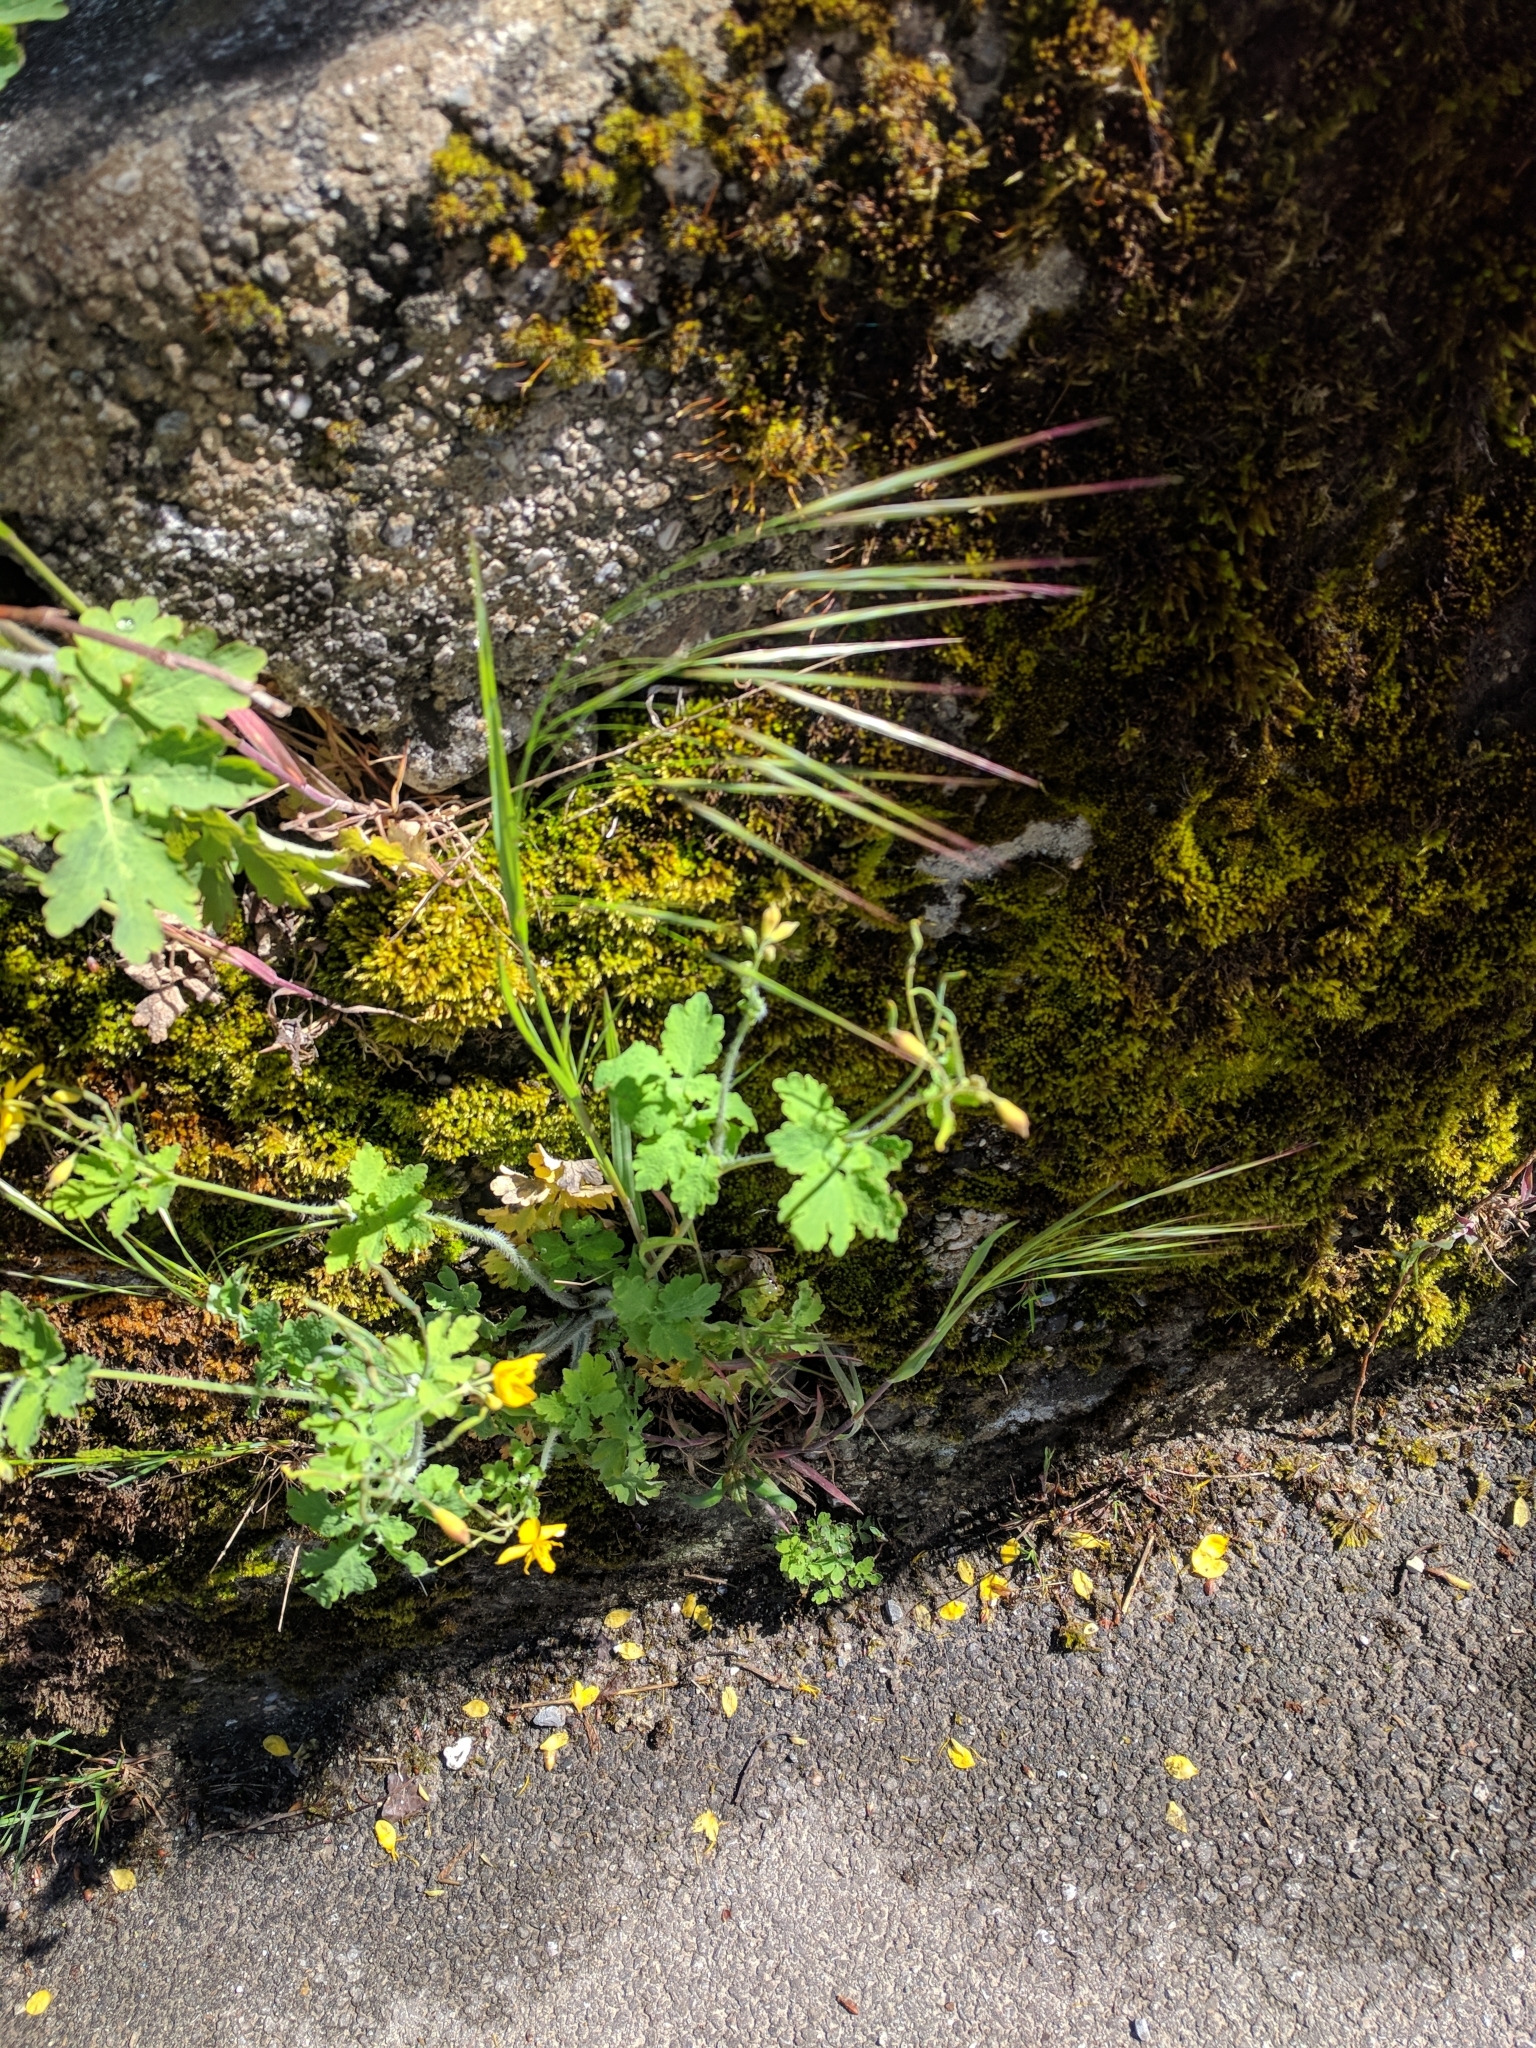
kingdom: Plantae
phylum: Tracheophyta
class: Liliopsida
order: Poales
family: Poaceae
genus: Bromus
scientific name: Bromus sterilis
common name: Poverty brome
